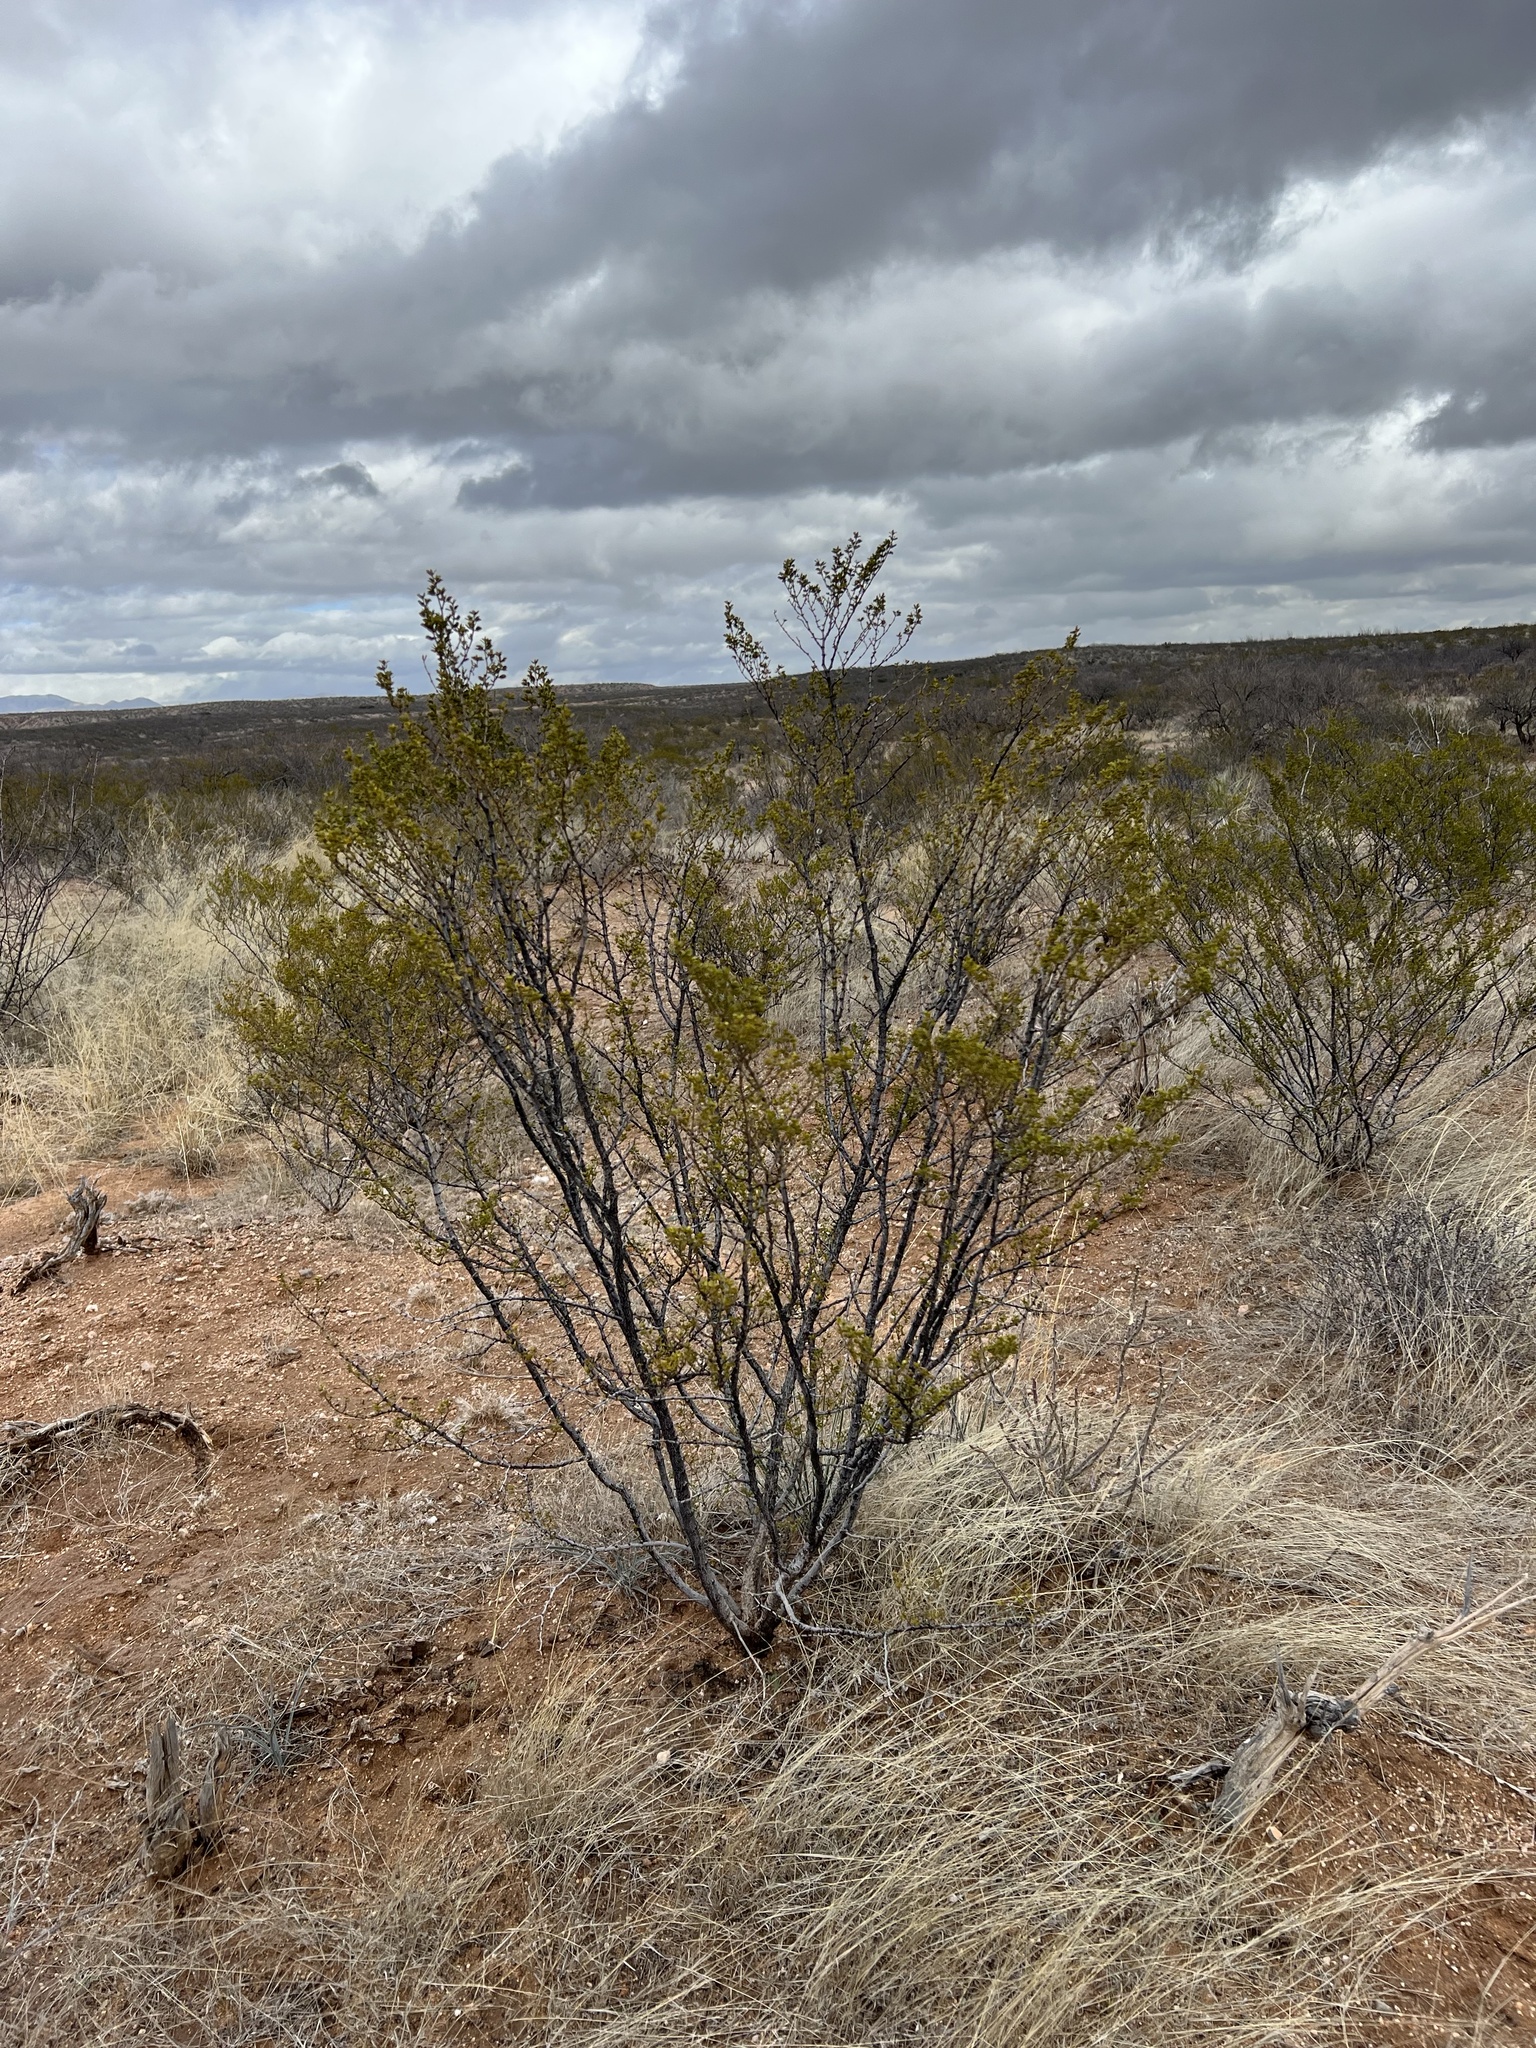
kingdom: Plantae
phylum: Tracheophyta
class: Magnoliopsida
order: Zygophyllales
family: Zygophyllaceae
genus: Larrea
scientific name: Larrea tridentata
